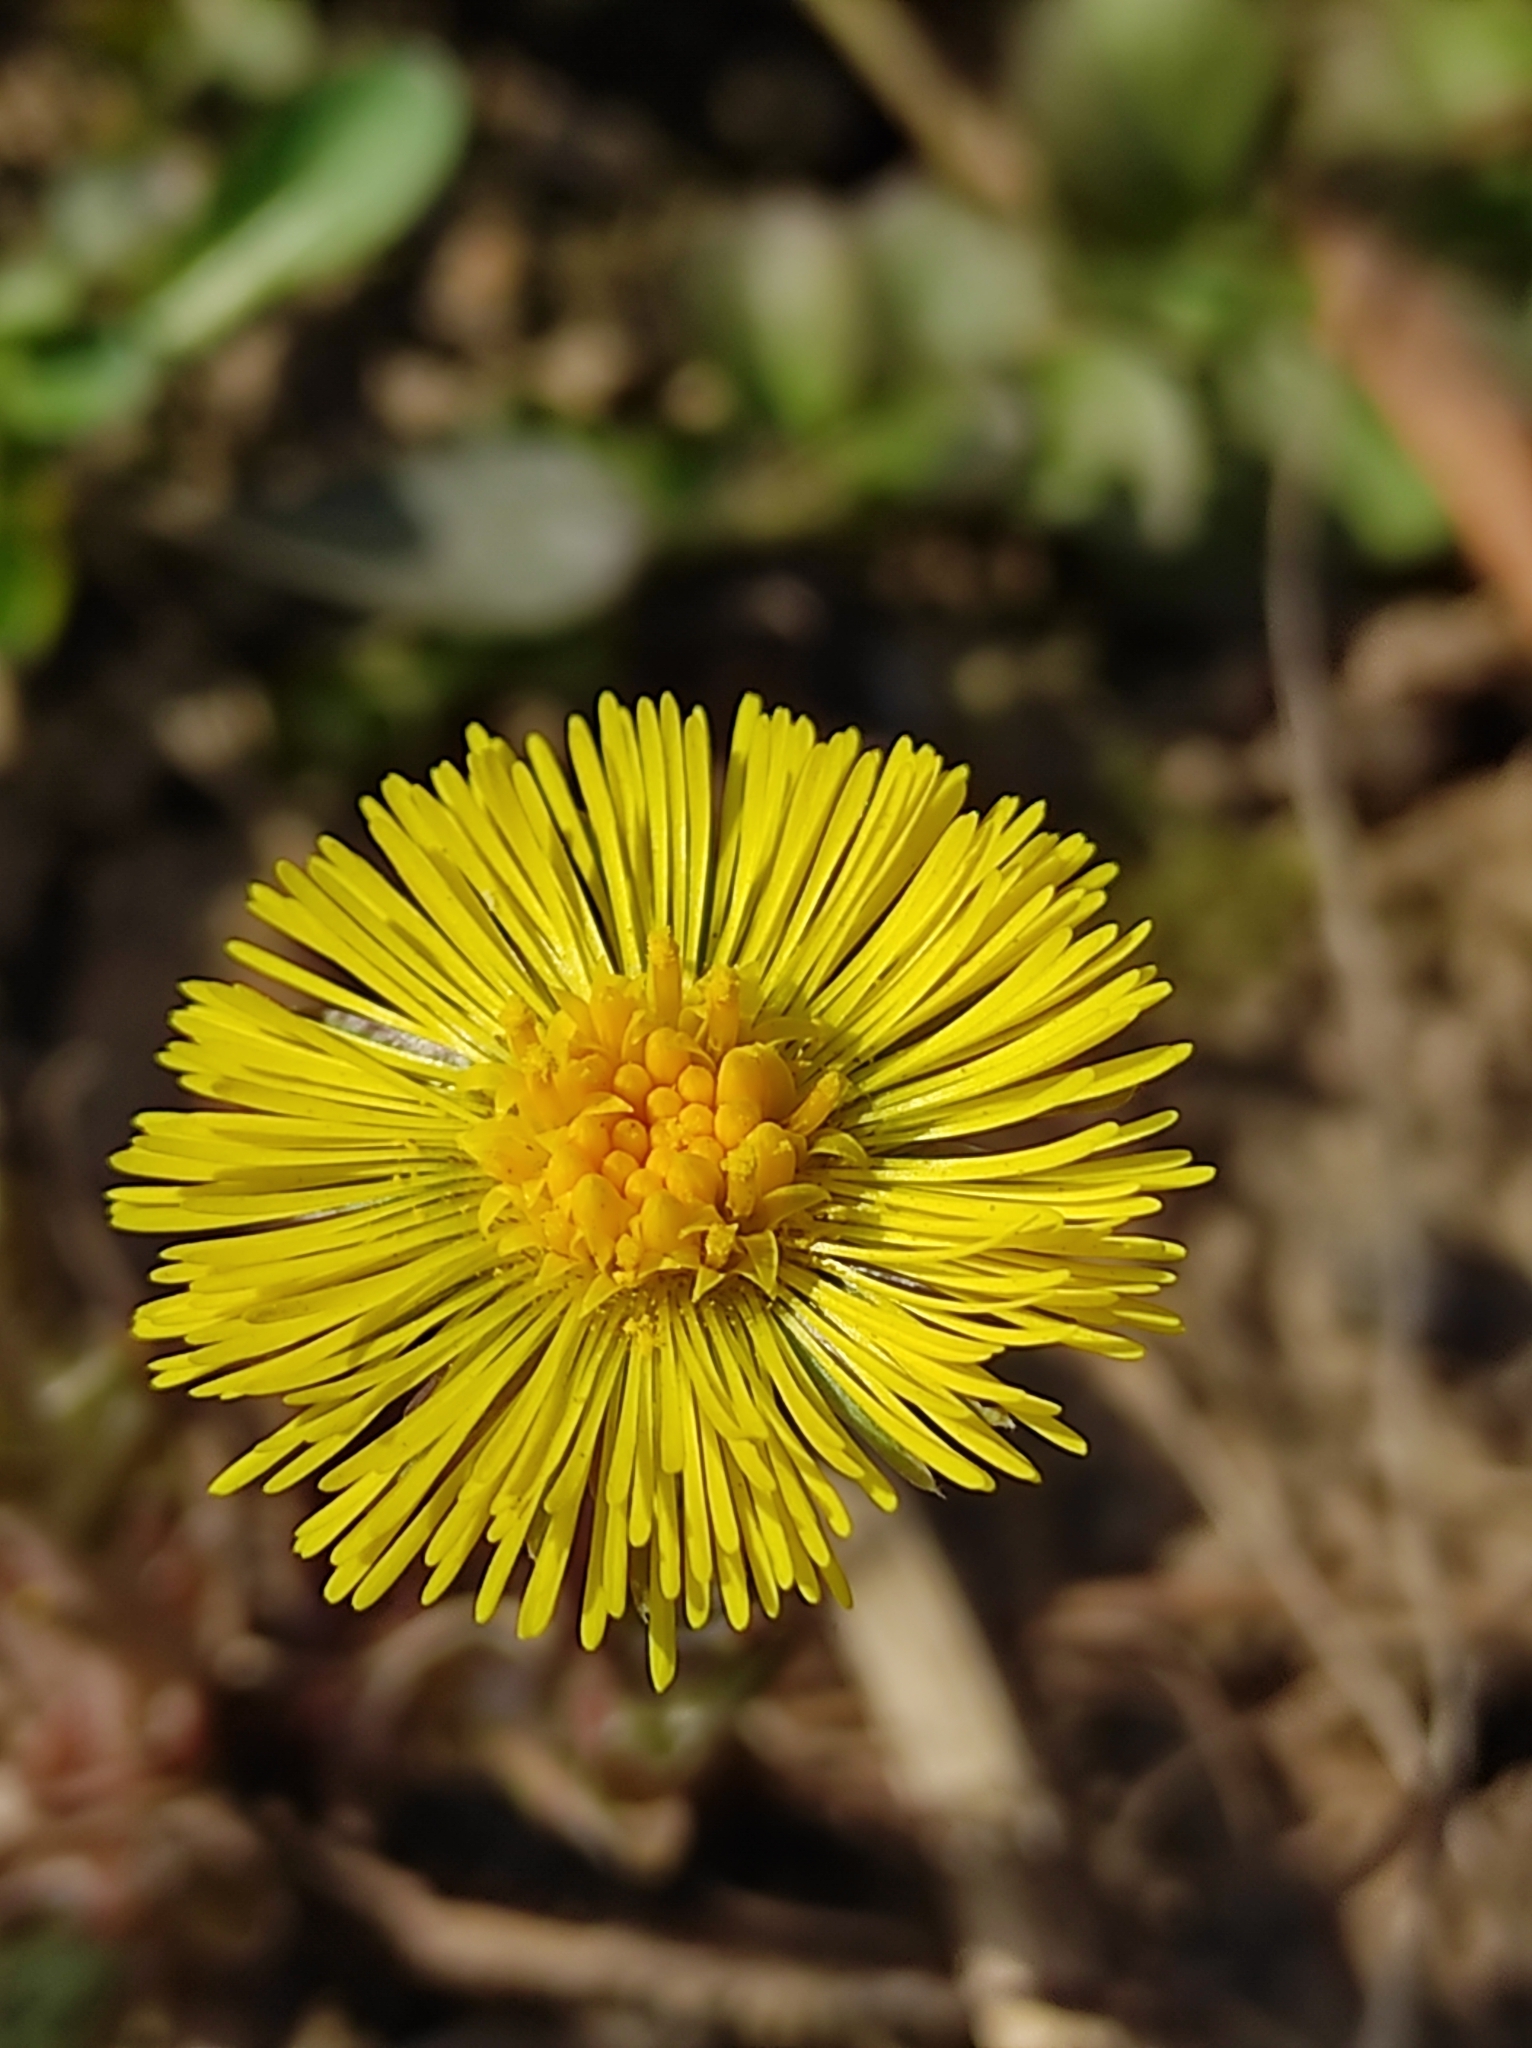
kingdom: Plantae
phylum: Tracheophyta
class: Magnoliopsida
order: Asterales
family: Asteraceae
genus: Tussilago
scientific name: Tussilago farfara
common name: Coltsfoot
